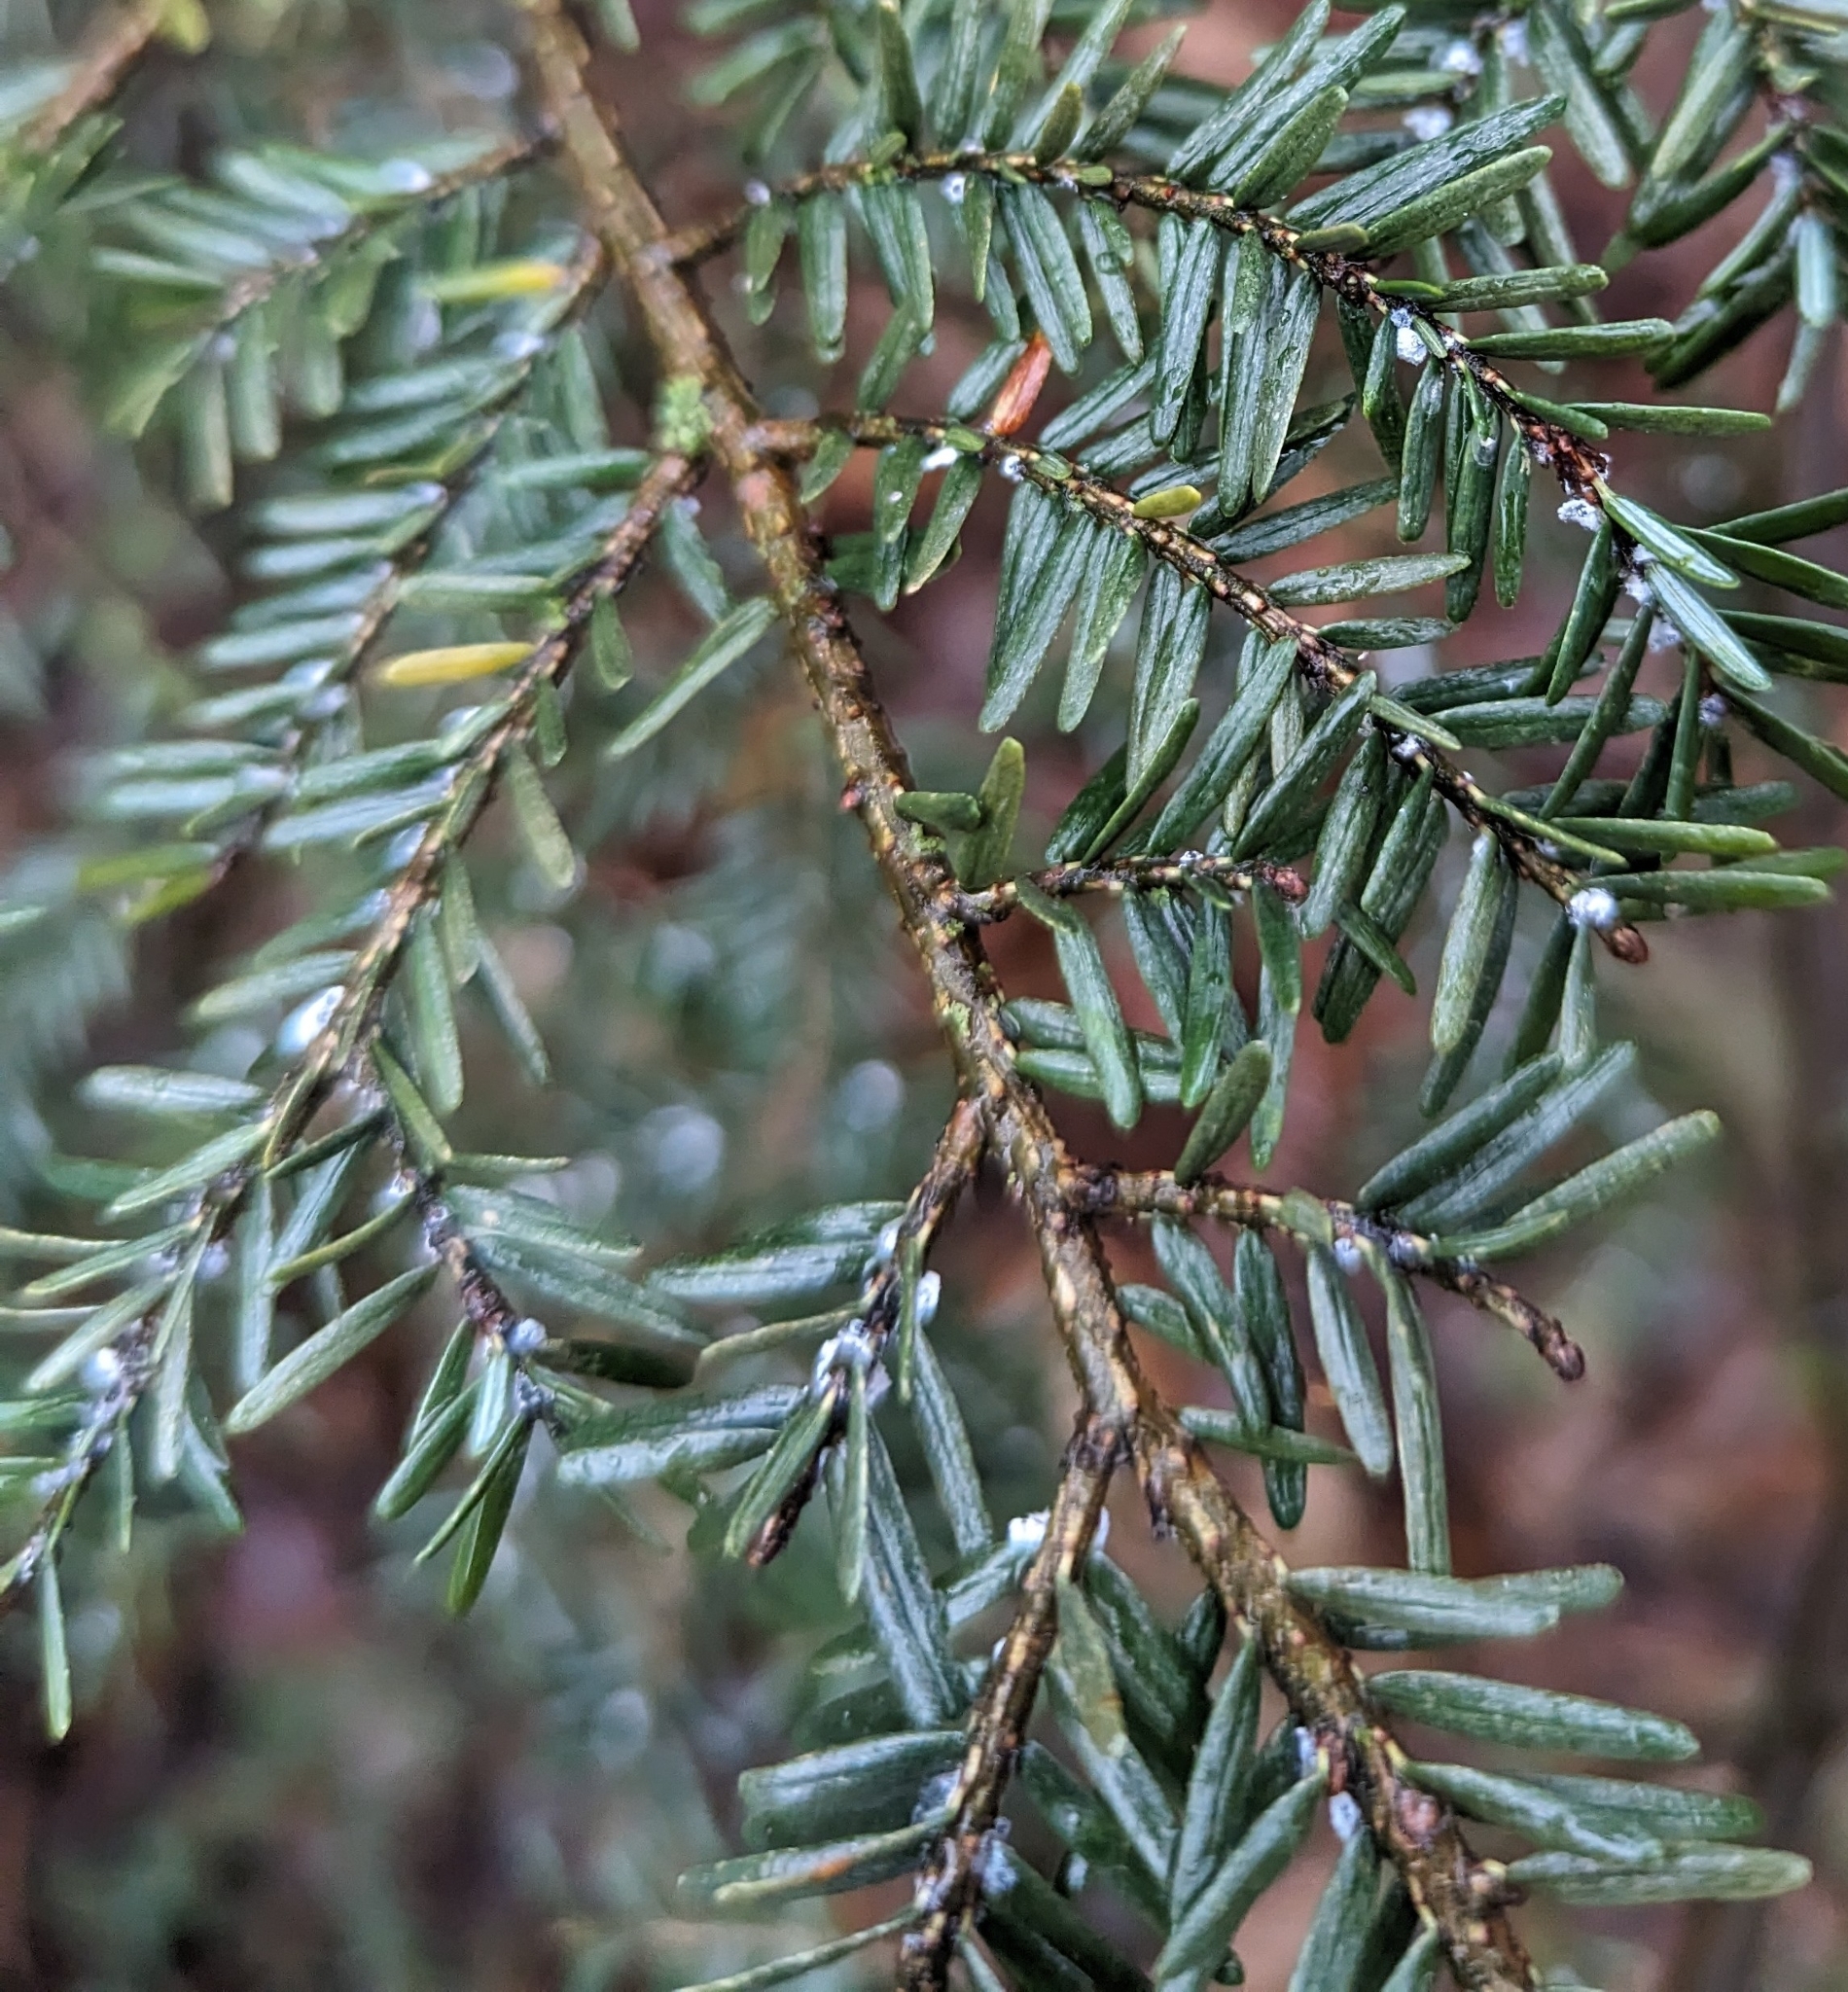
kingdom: Animalia
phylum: Arthropoda
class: Insecta
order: Hemiptera
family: Adelgidae
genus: Adelges
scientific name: Adelges tsugae
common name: Hemlock woolly adelgid
